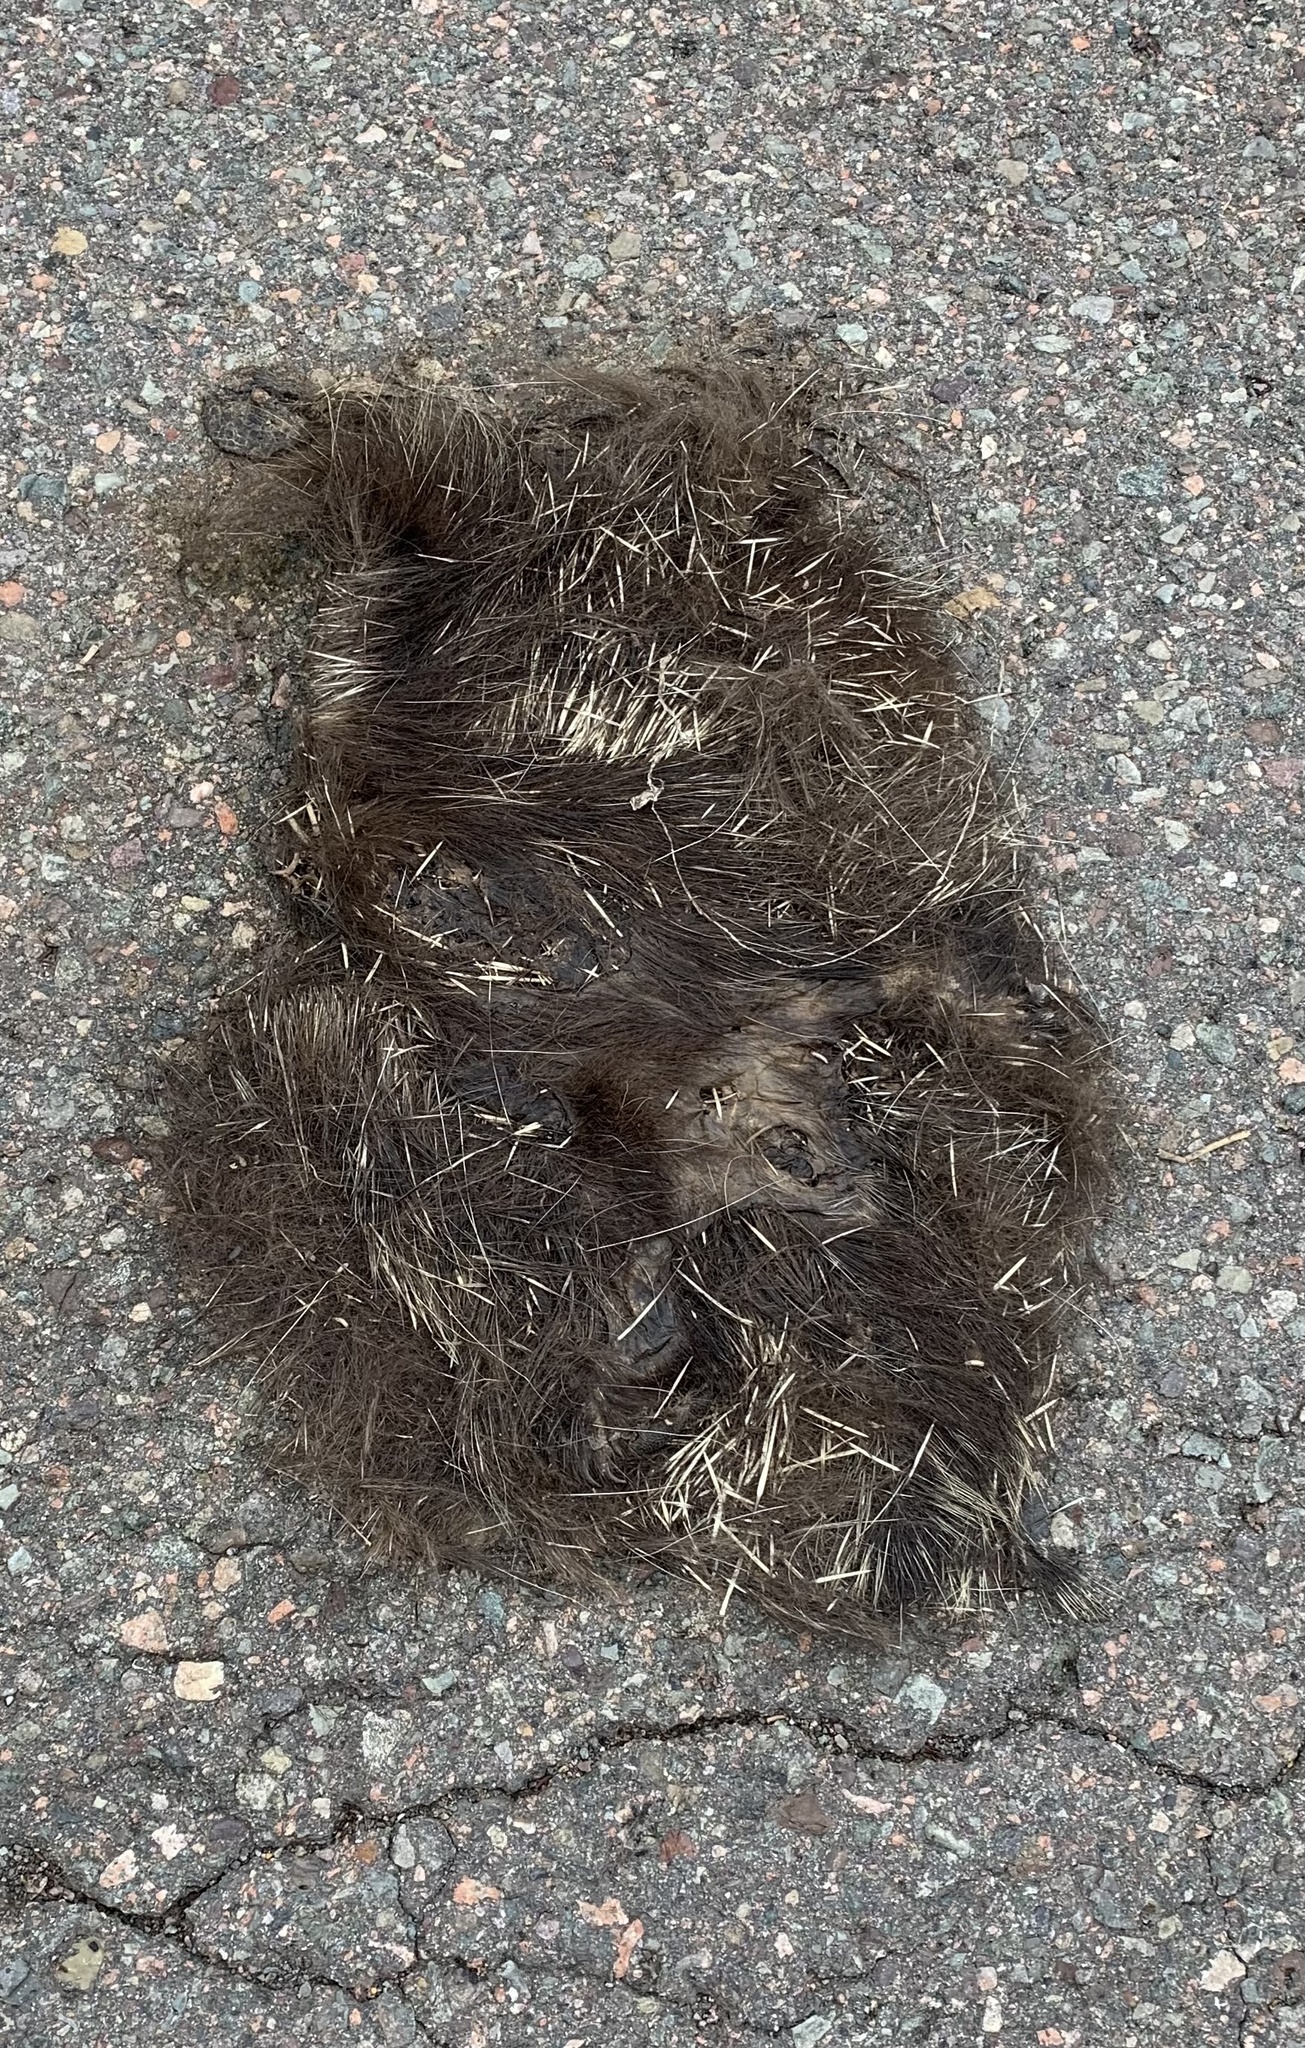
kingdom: Animalia
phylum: Chordata
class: Mammalia
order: Rodentia
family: Erethizontidae
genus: Erethizon
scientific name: Erethizon dorsatus
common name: North american porcupine
